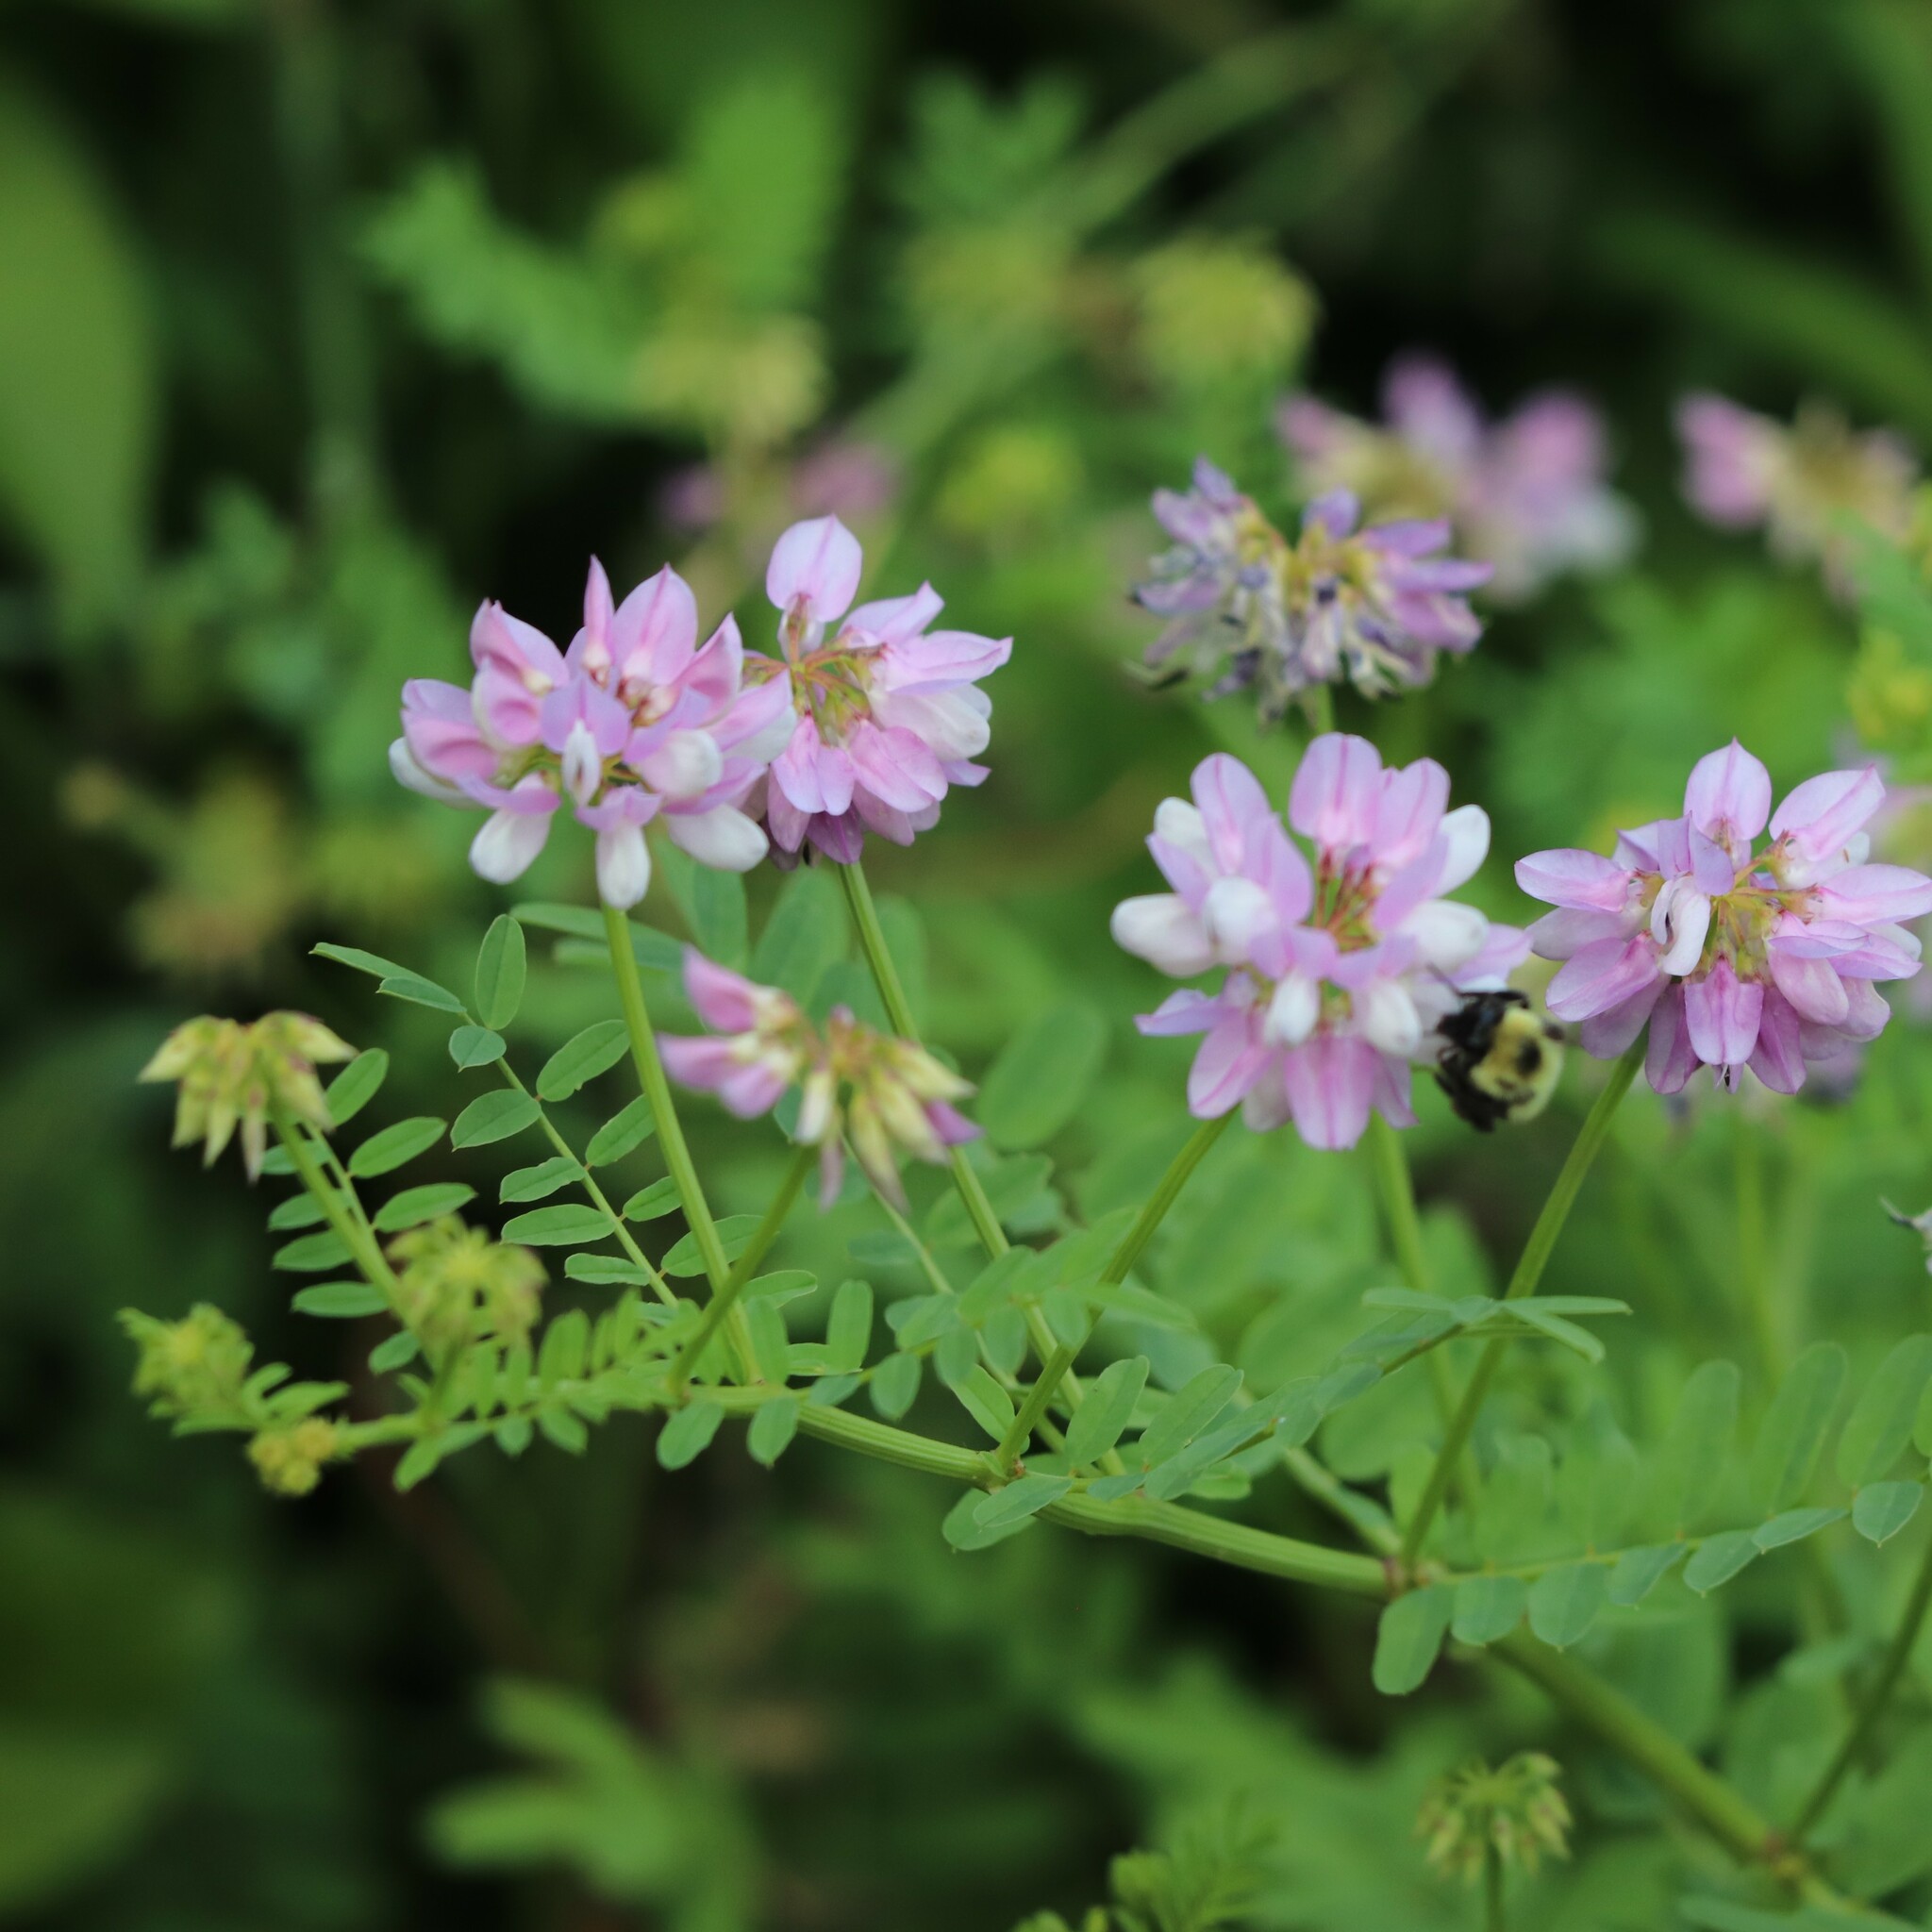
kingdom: Plantae
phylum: Tracheophyta
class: Magnoliopsida
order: Fabales
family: Fabaceae
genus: Coronilla
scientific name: Coronilla varia
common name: Crownvetch
